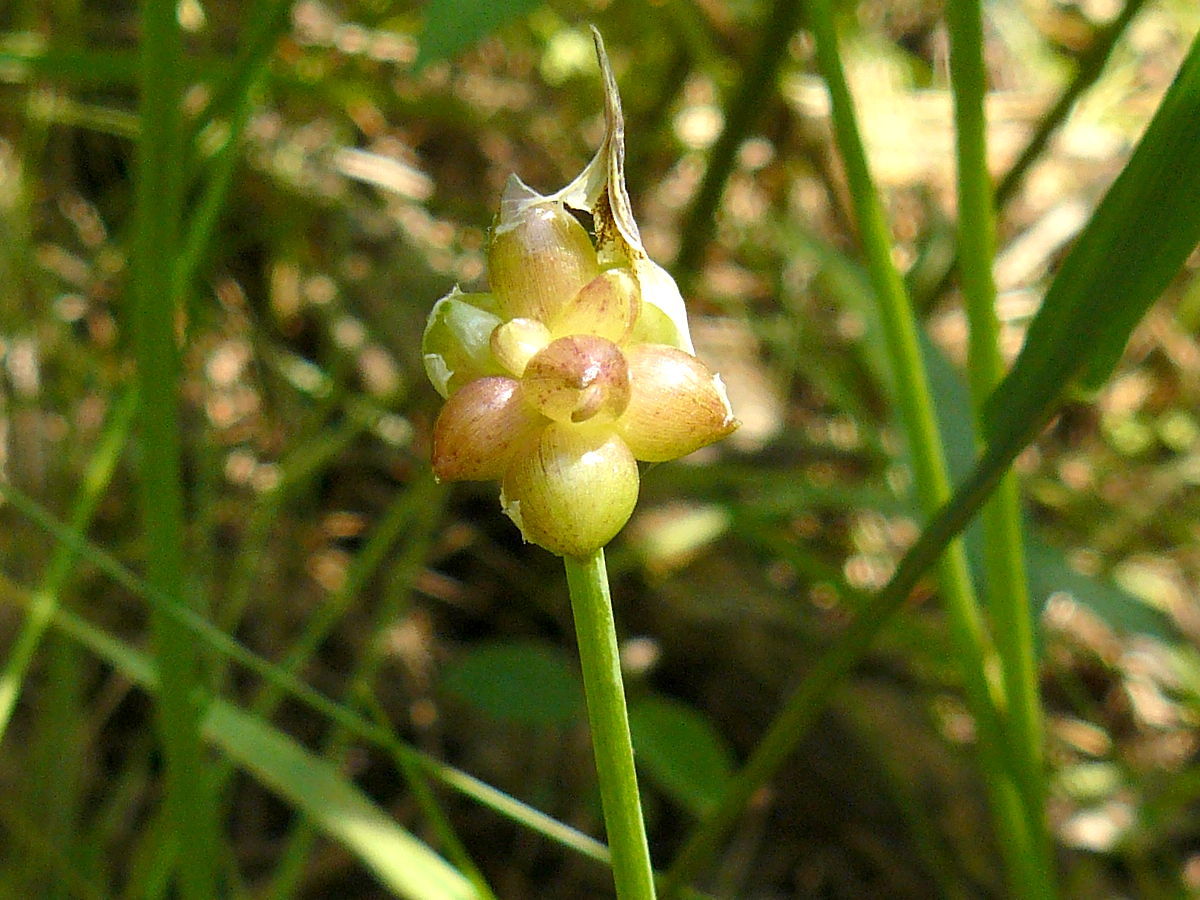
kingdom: Plantae
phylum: Tracheophyta
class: Liliopsida
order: Asparagales
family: Amaryllidaceae
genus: Allium
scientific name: Allium canadense
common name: Meadow garlic
